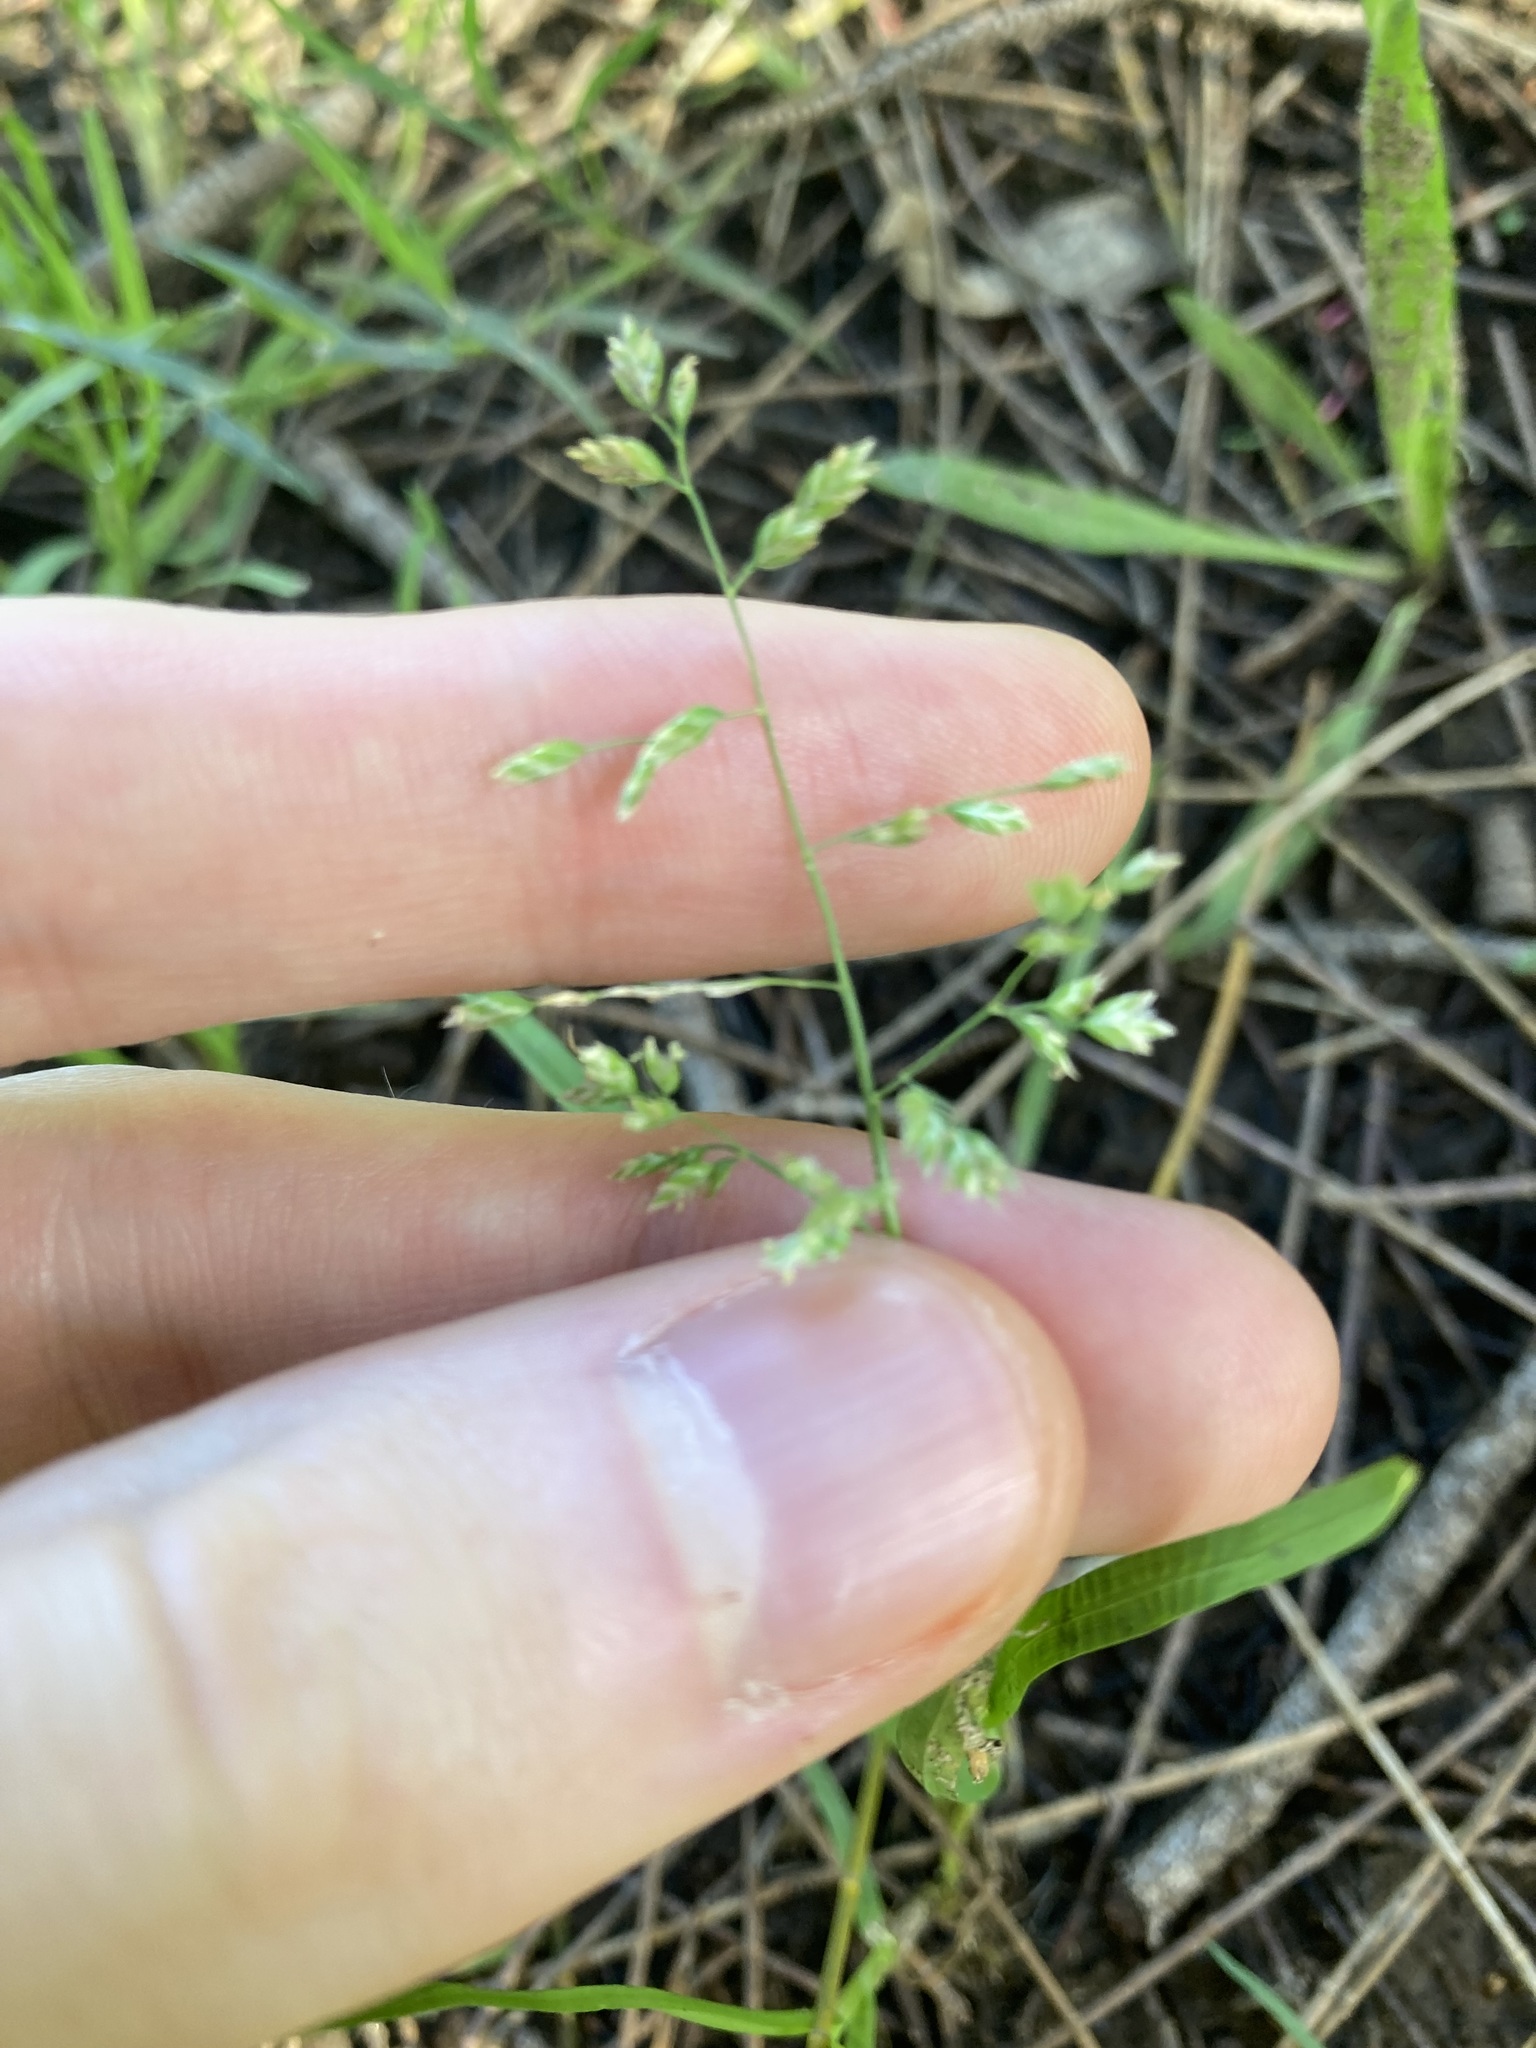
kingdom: Plantae
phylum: Tracheophyta
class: Liliopsida
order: Poales
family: Poaceae
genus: Poa
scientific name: Poa annua
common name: Annual bluegrass
